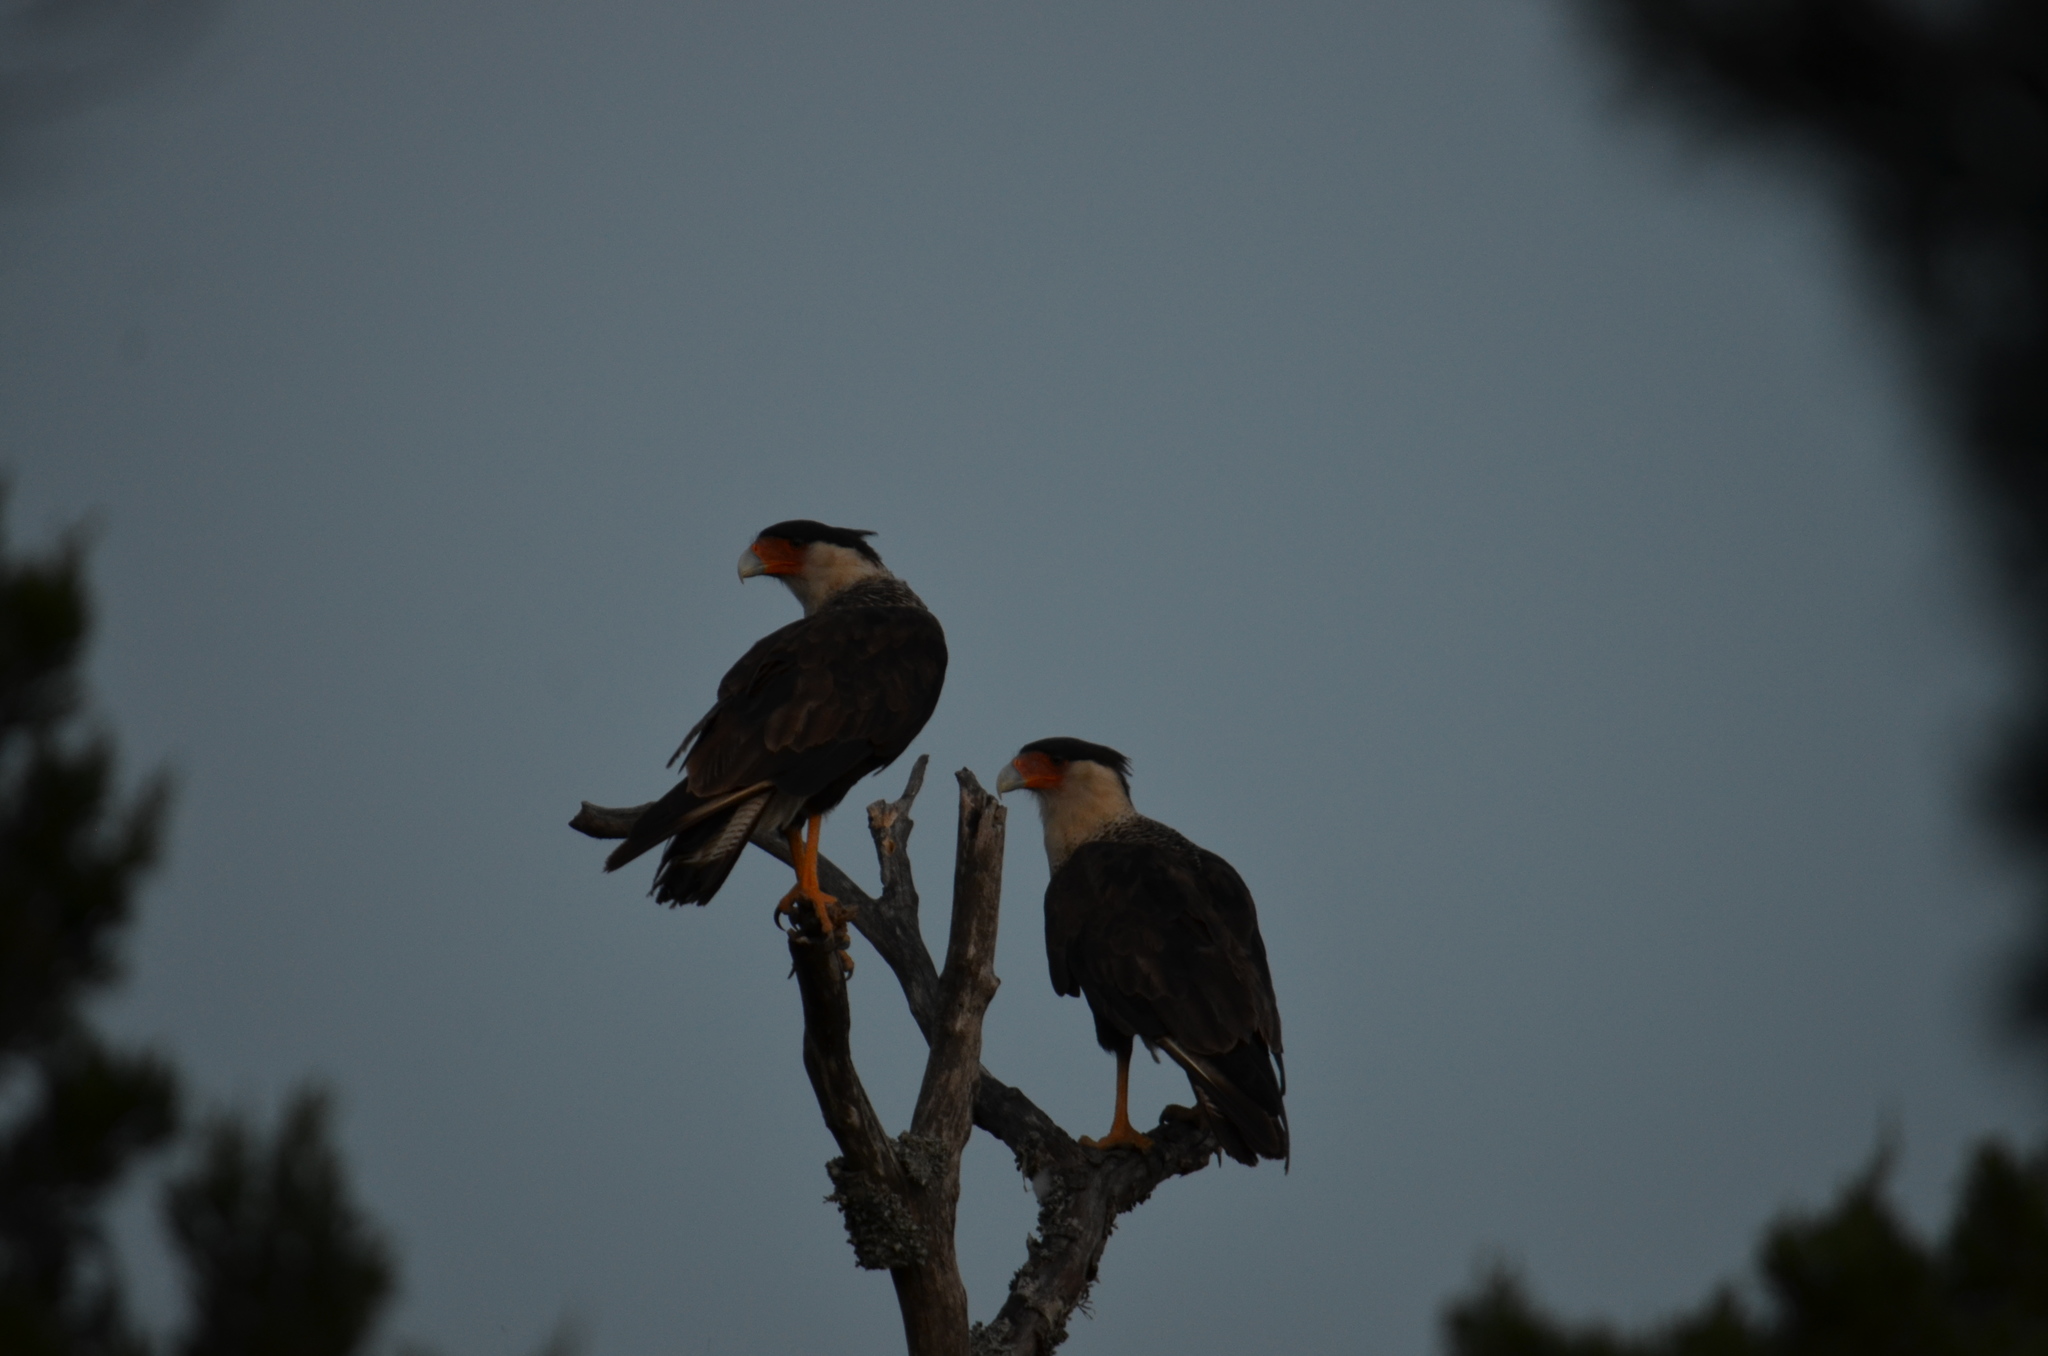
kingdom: Animalia
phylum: Chordata
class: Aves
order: Falconiformes
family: Falconidae
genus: Caracara
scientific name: Caracara plancus
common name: Southern caracara
